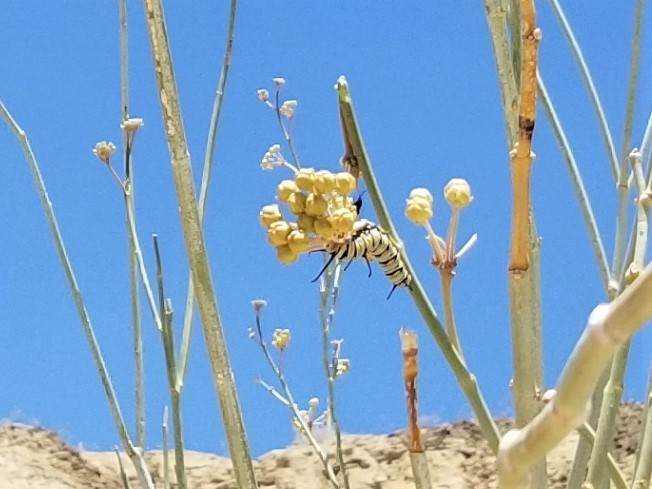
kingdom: Animalia
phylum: Arthropoda
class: Insecta
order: Lepidoptera
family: Nymphalidae
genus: Danaus
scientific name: Danaus gilippus
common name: Queen
